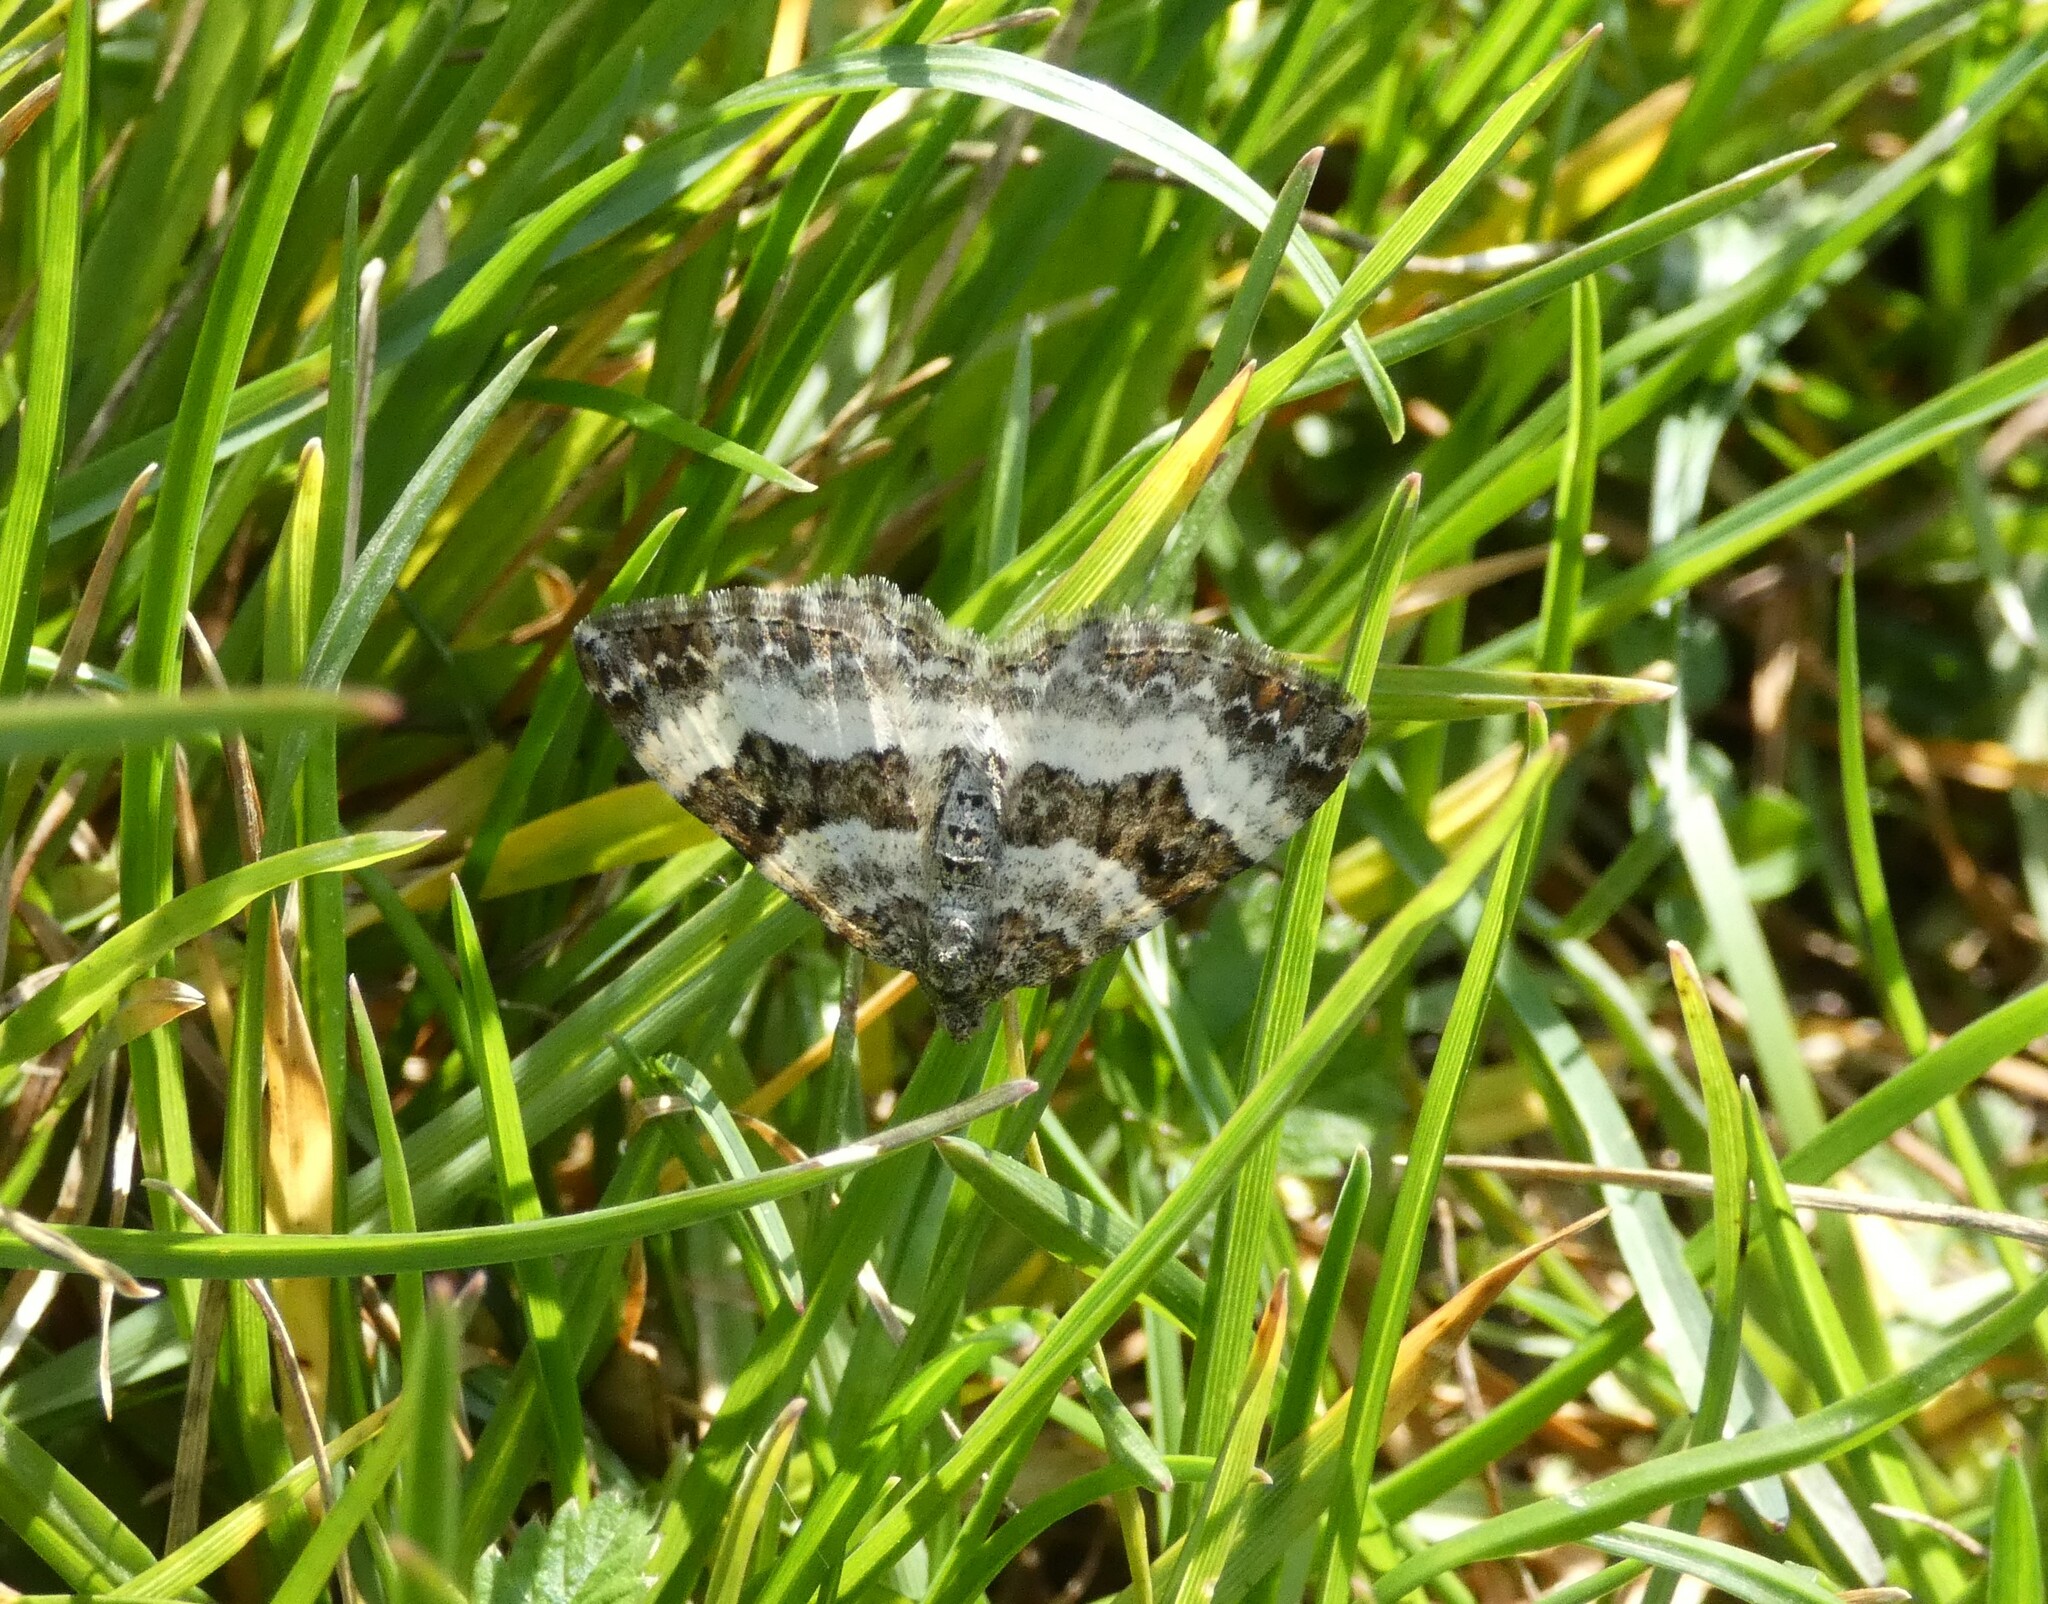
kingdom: Animalia
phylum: Arthropoda
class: Insecta
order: Lepidoptera
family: Geometridae
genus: Epirrhoe
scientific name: Epirrhoe alternata
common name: Common carpet
